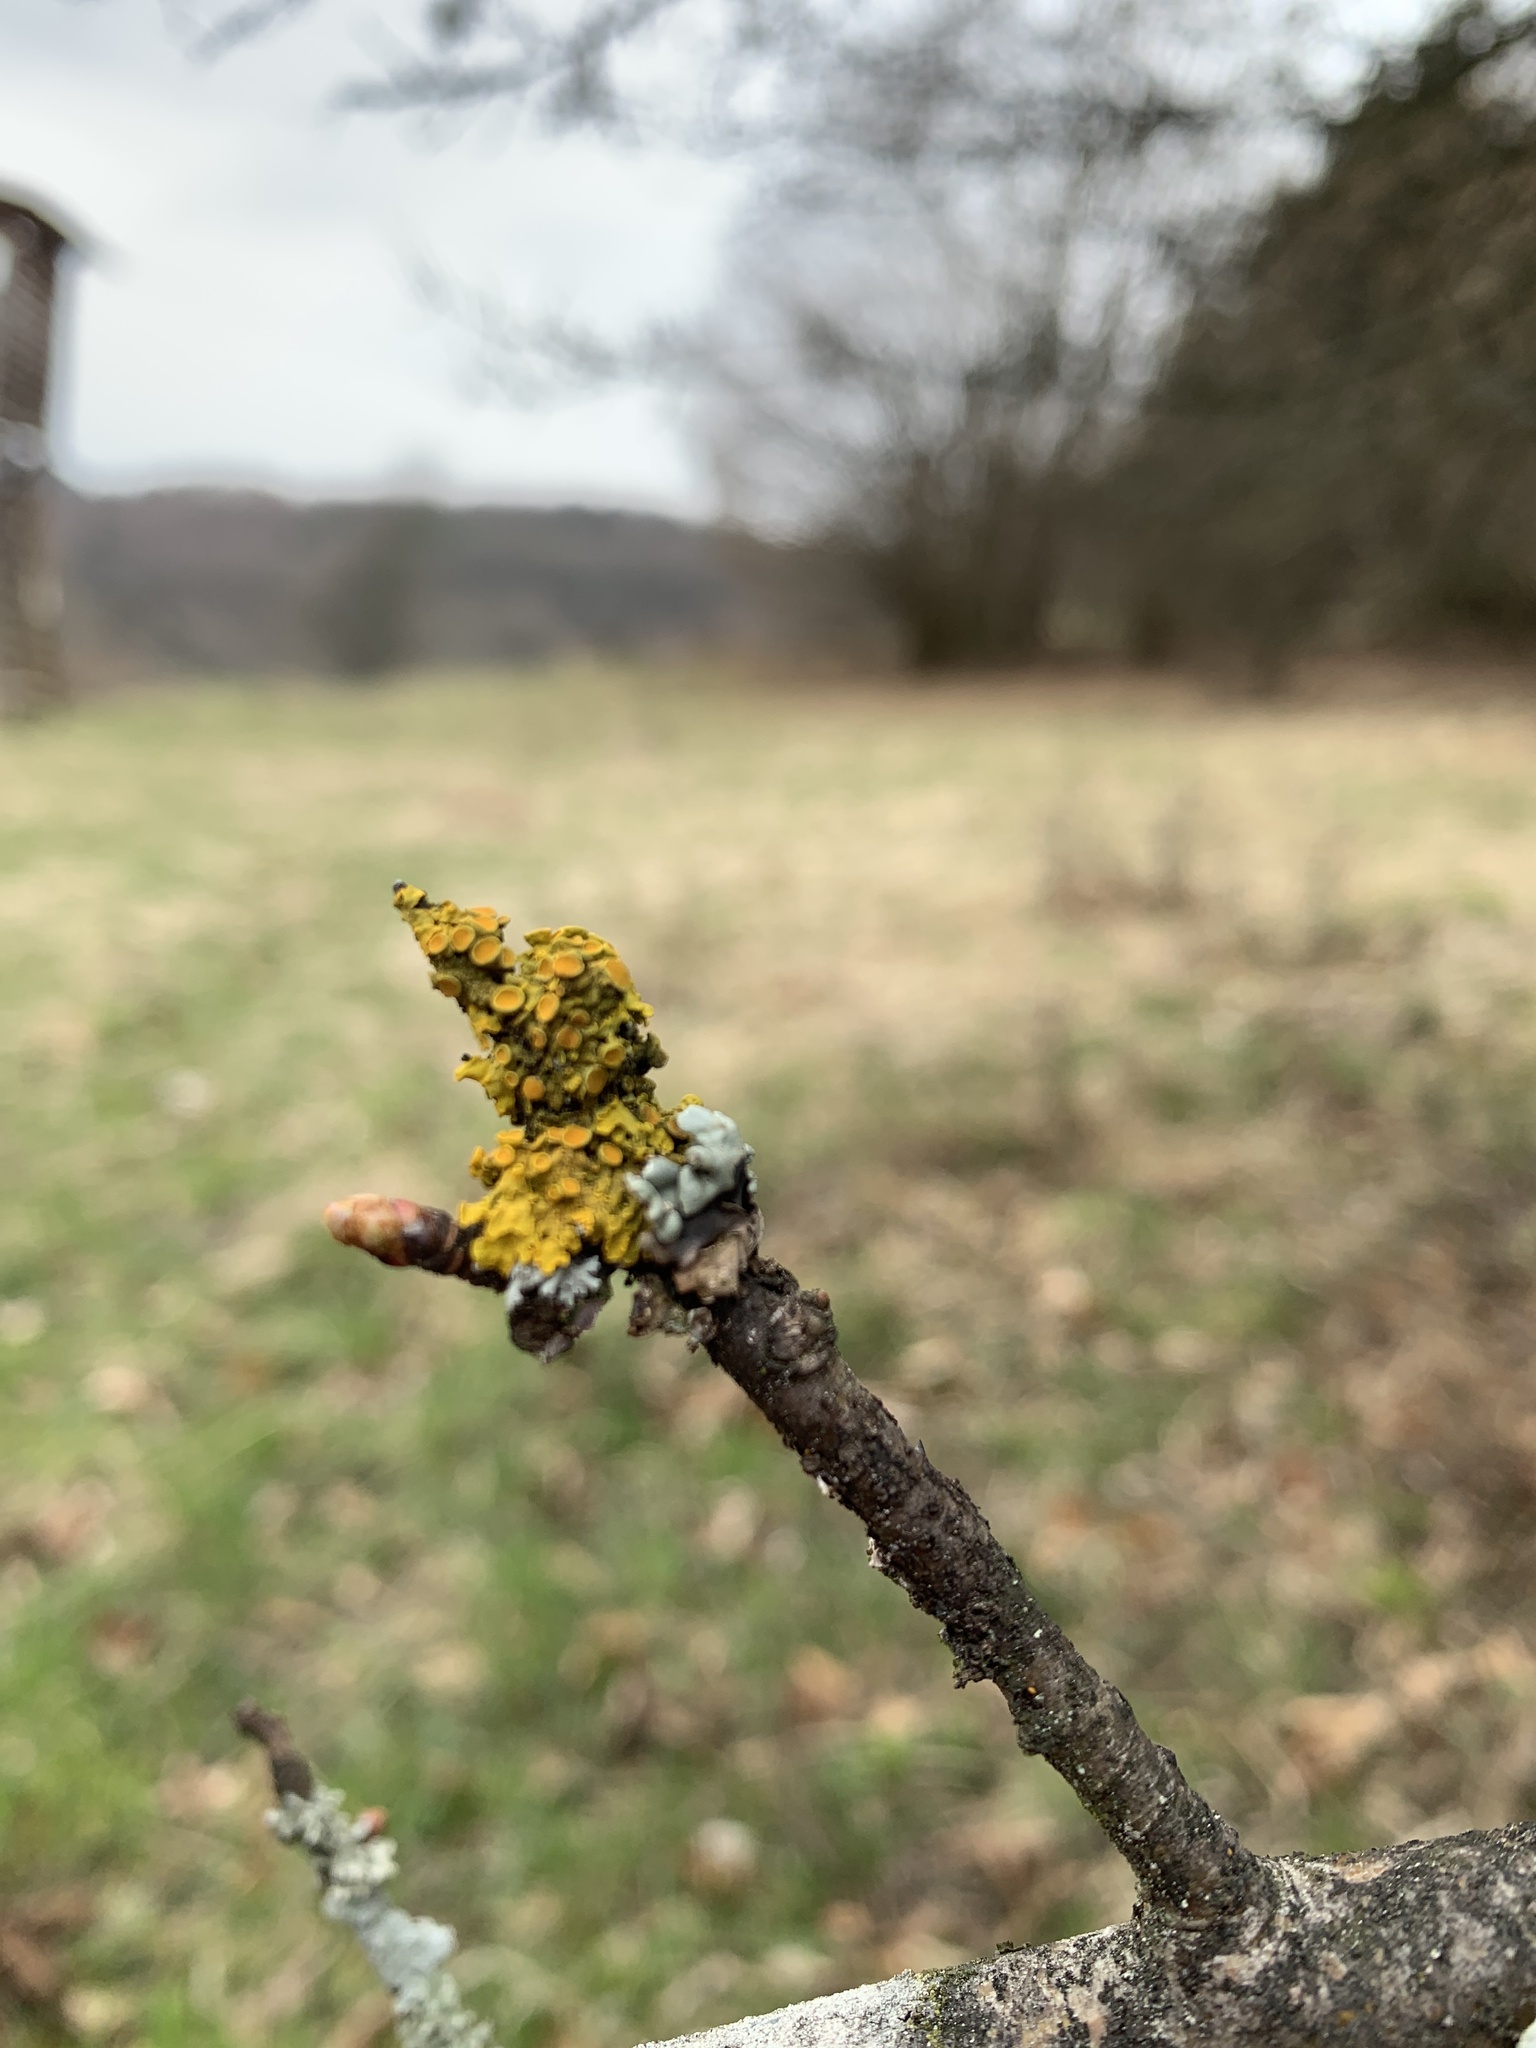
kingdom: Fungi
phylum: Ascomycota
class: Lecanoromycetes
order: Teloschistales
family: Teloschistaceae
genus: Xanthoria
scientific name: Xanthoria parietina
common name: Common orange lichen
